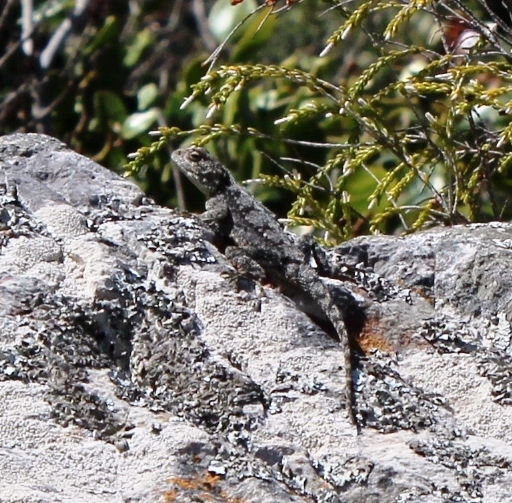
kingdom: Animalia
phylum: Chordata
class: Squamata
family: Agamidae
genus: Agama
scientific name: Agama atra
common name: Southern african rock agama
